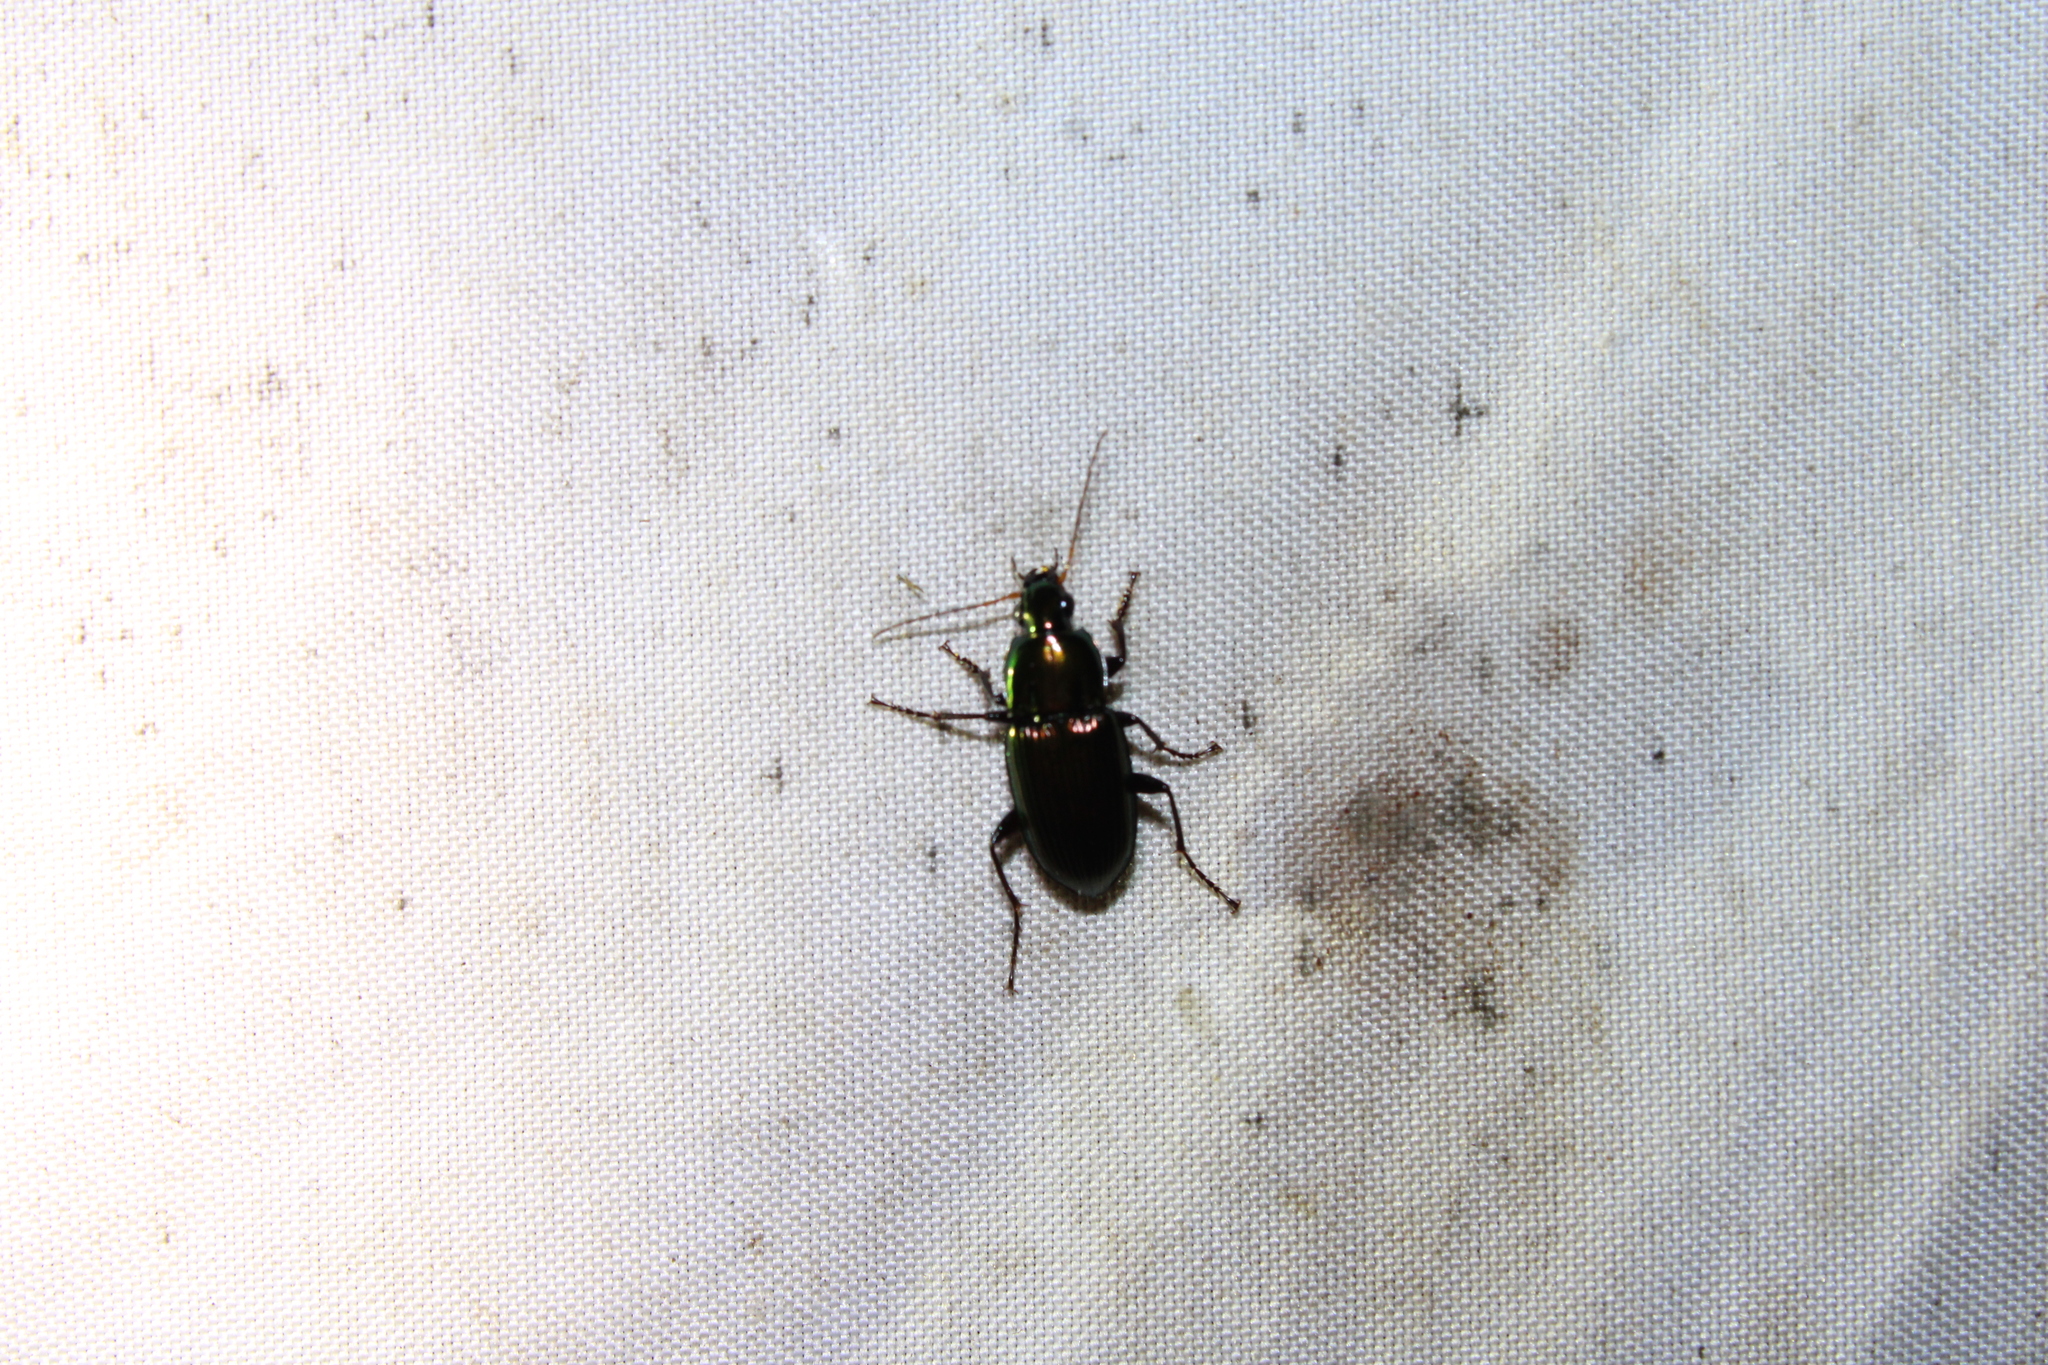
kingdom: Animalia
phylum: Arthropoda
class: Insecta
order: Coleoptera
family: Carabidae
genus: Poecilus
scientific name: Poecilus chalcites
